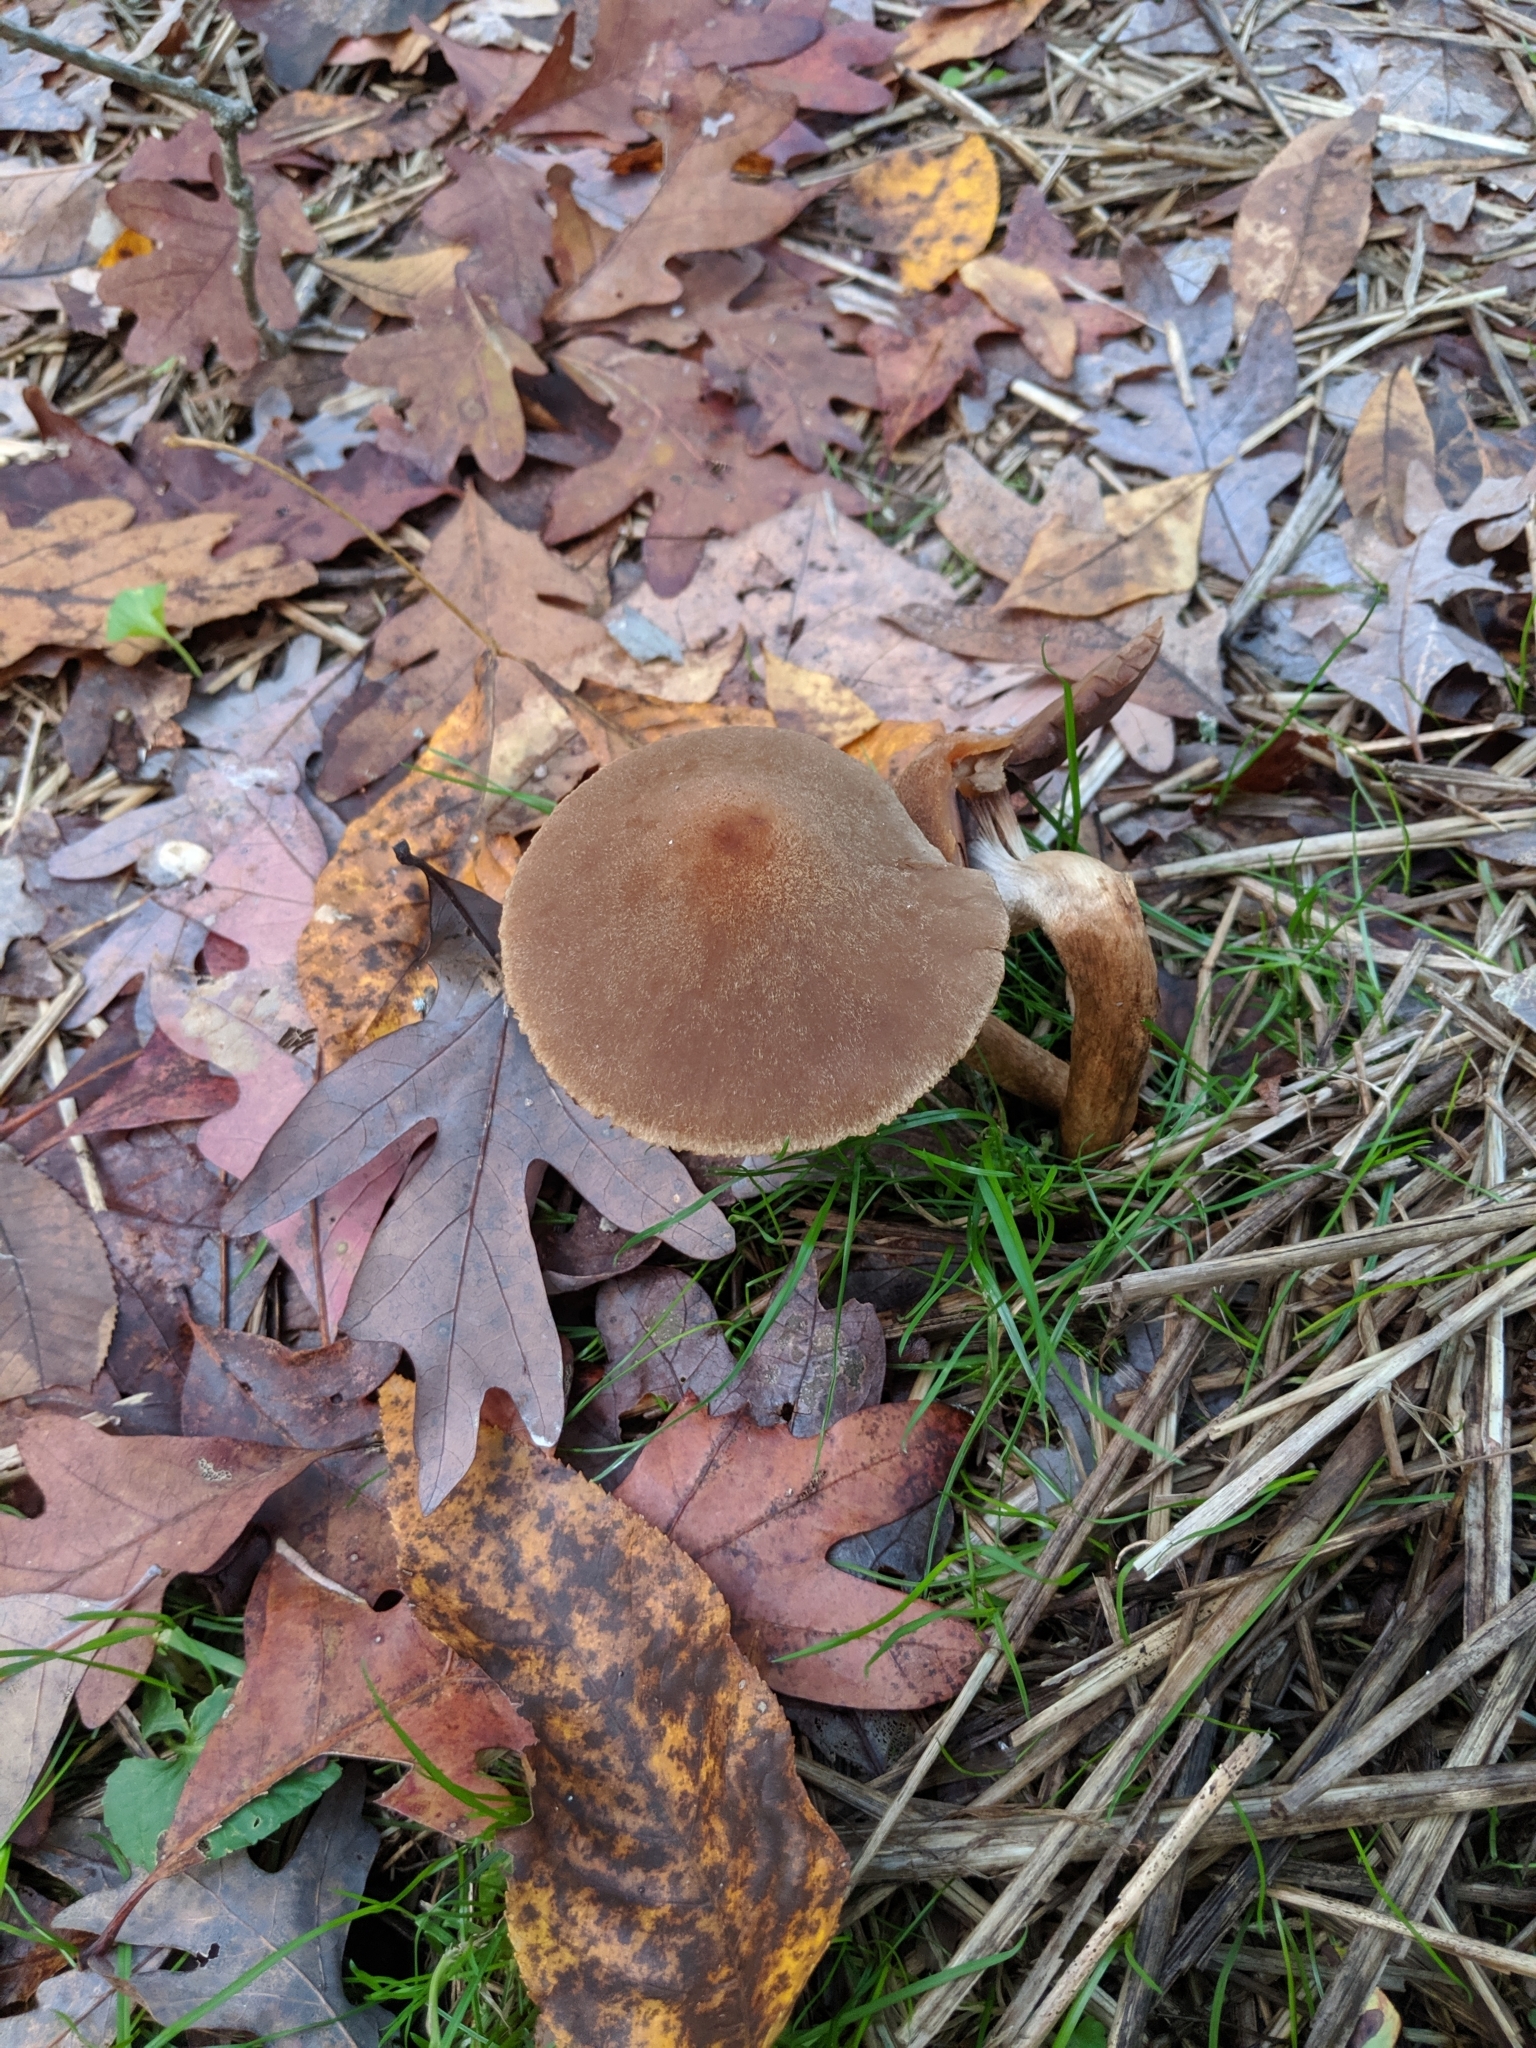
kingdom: Fungi
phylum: Basidiomycota
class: Agaricomycetes
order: Agaricales
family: Psathyrellaceae
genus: Lacrymaria
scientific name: Lacrymaria lacrymabunda
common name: Weeping widow
